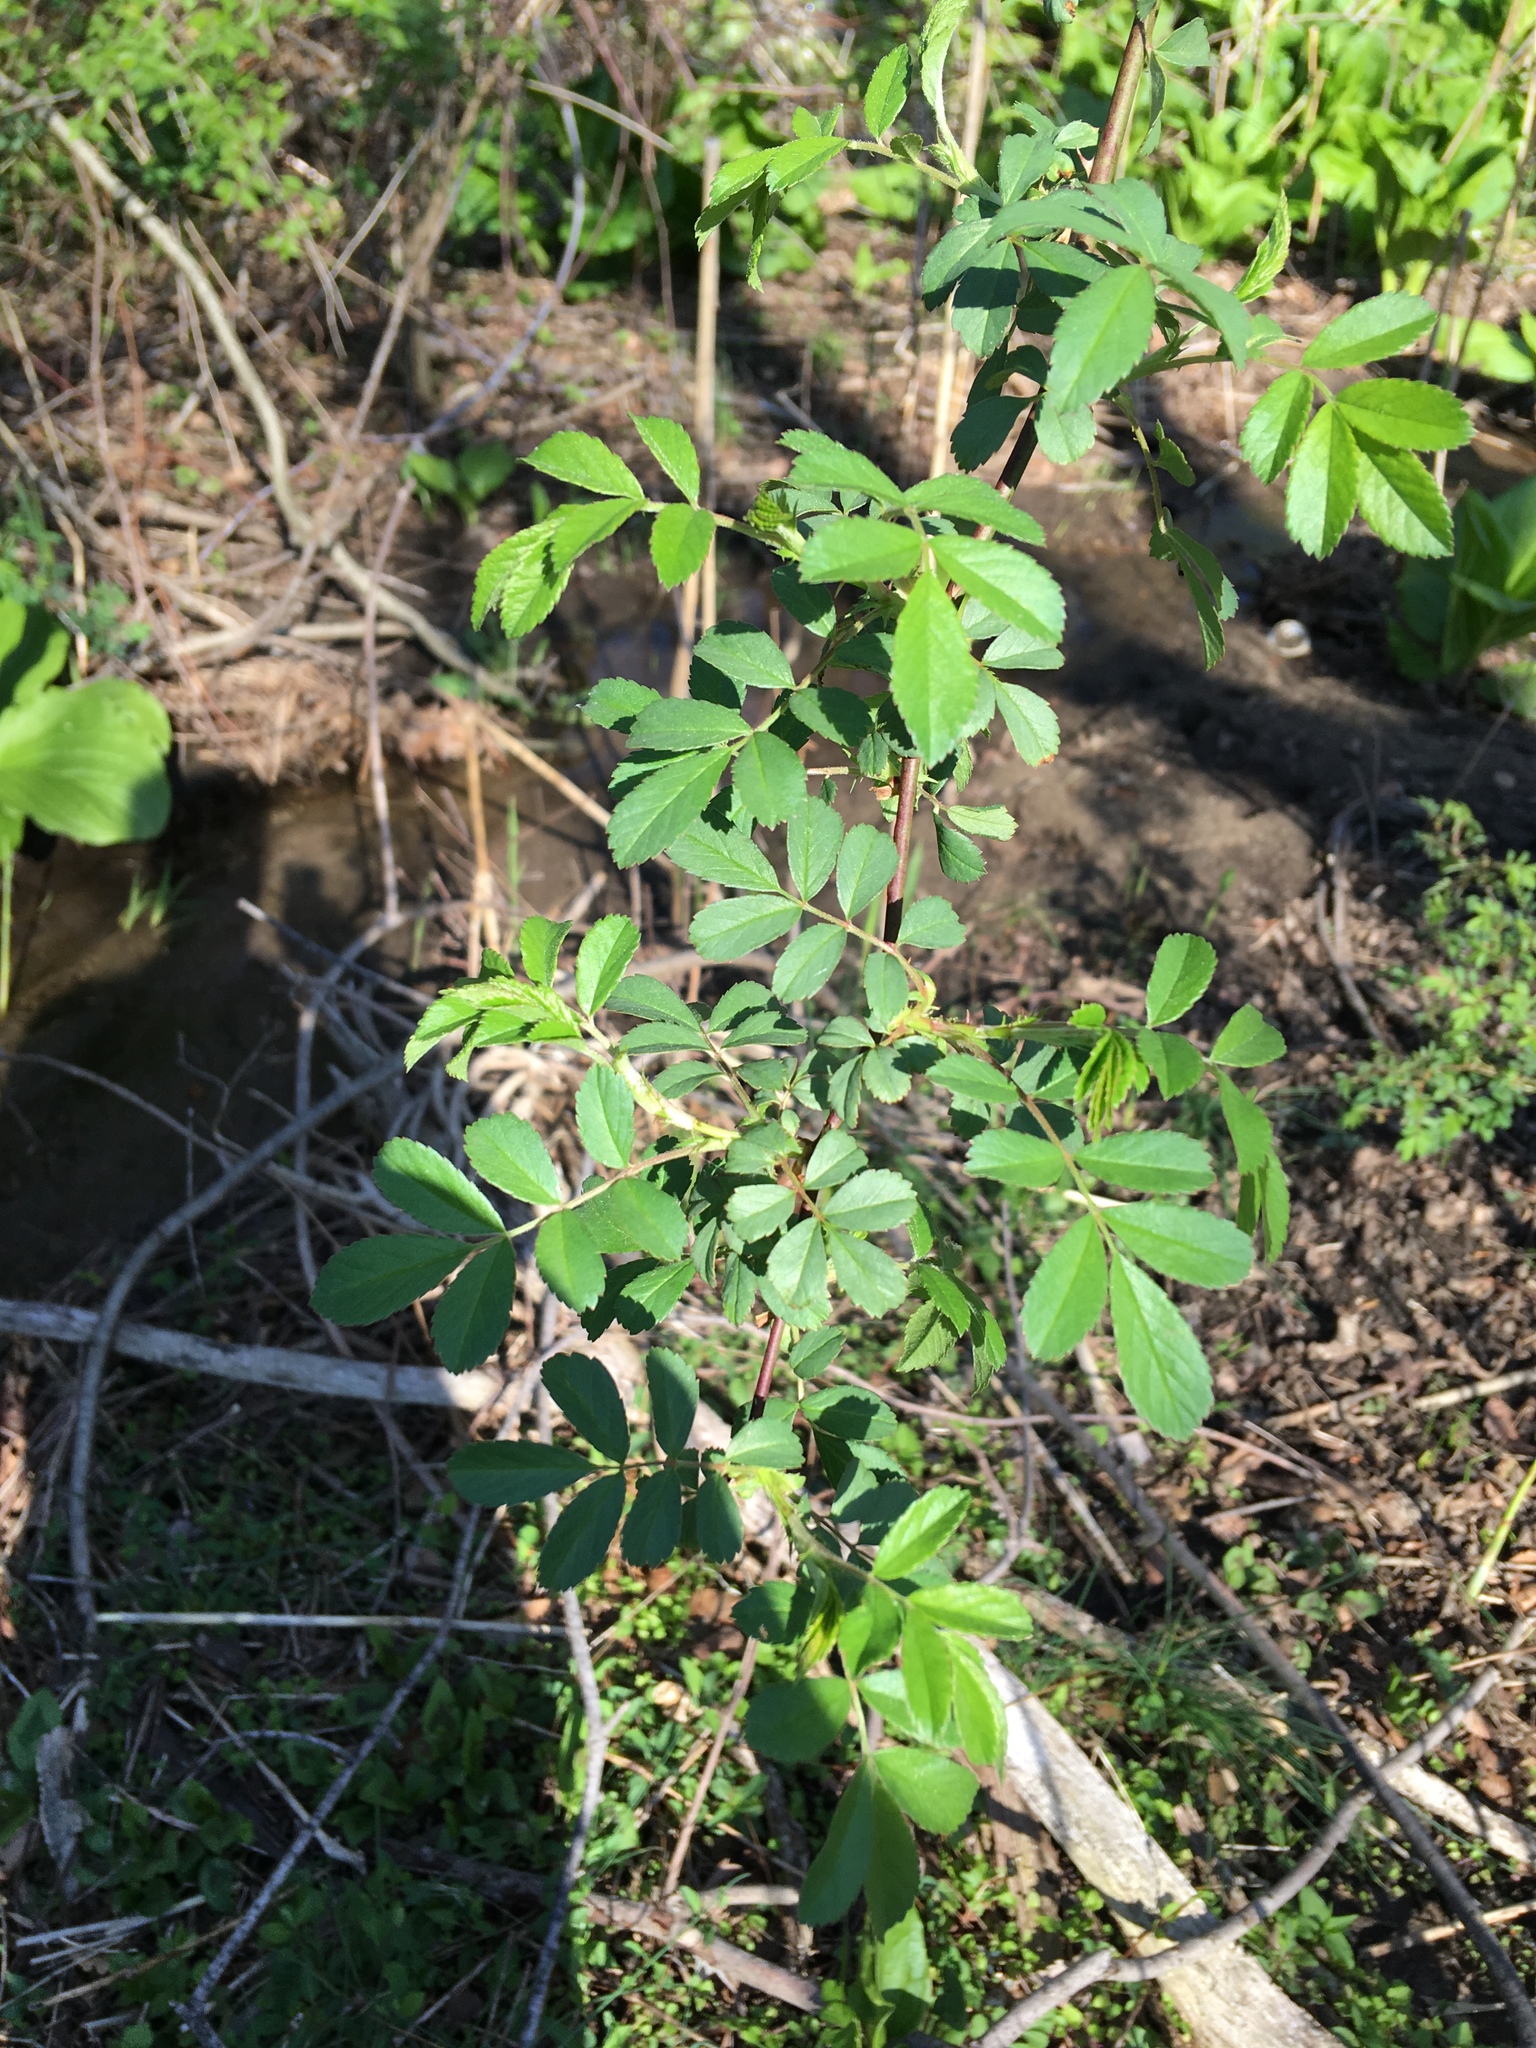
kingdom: Plantae
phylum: Tracheophyta
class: Magnoliopsida
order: Rosales
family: Rosaceae
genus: Rosa
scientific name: Rosa multiflora
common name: Multiflora rose
